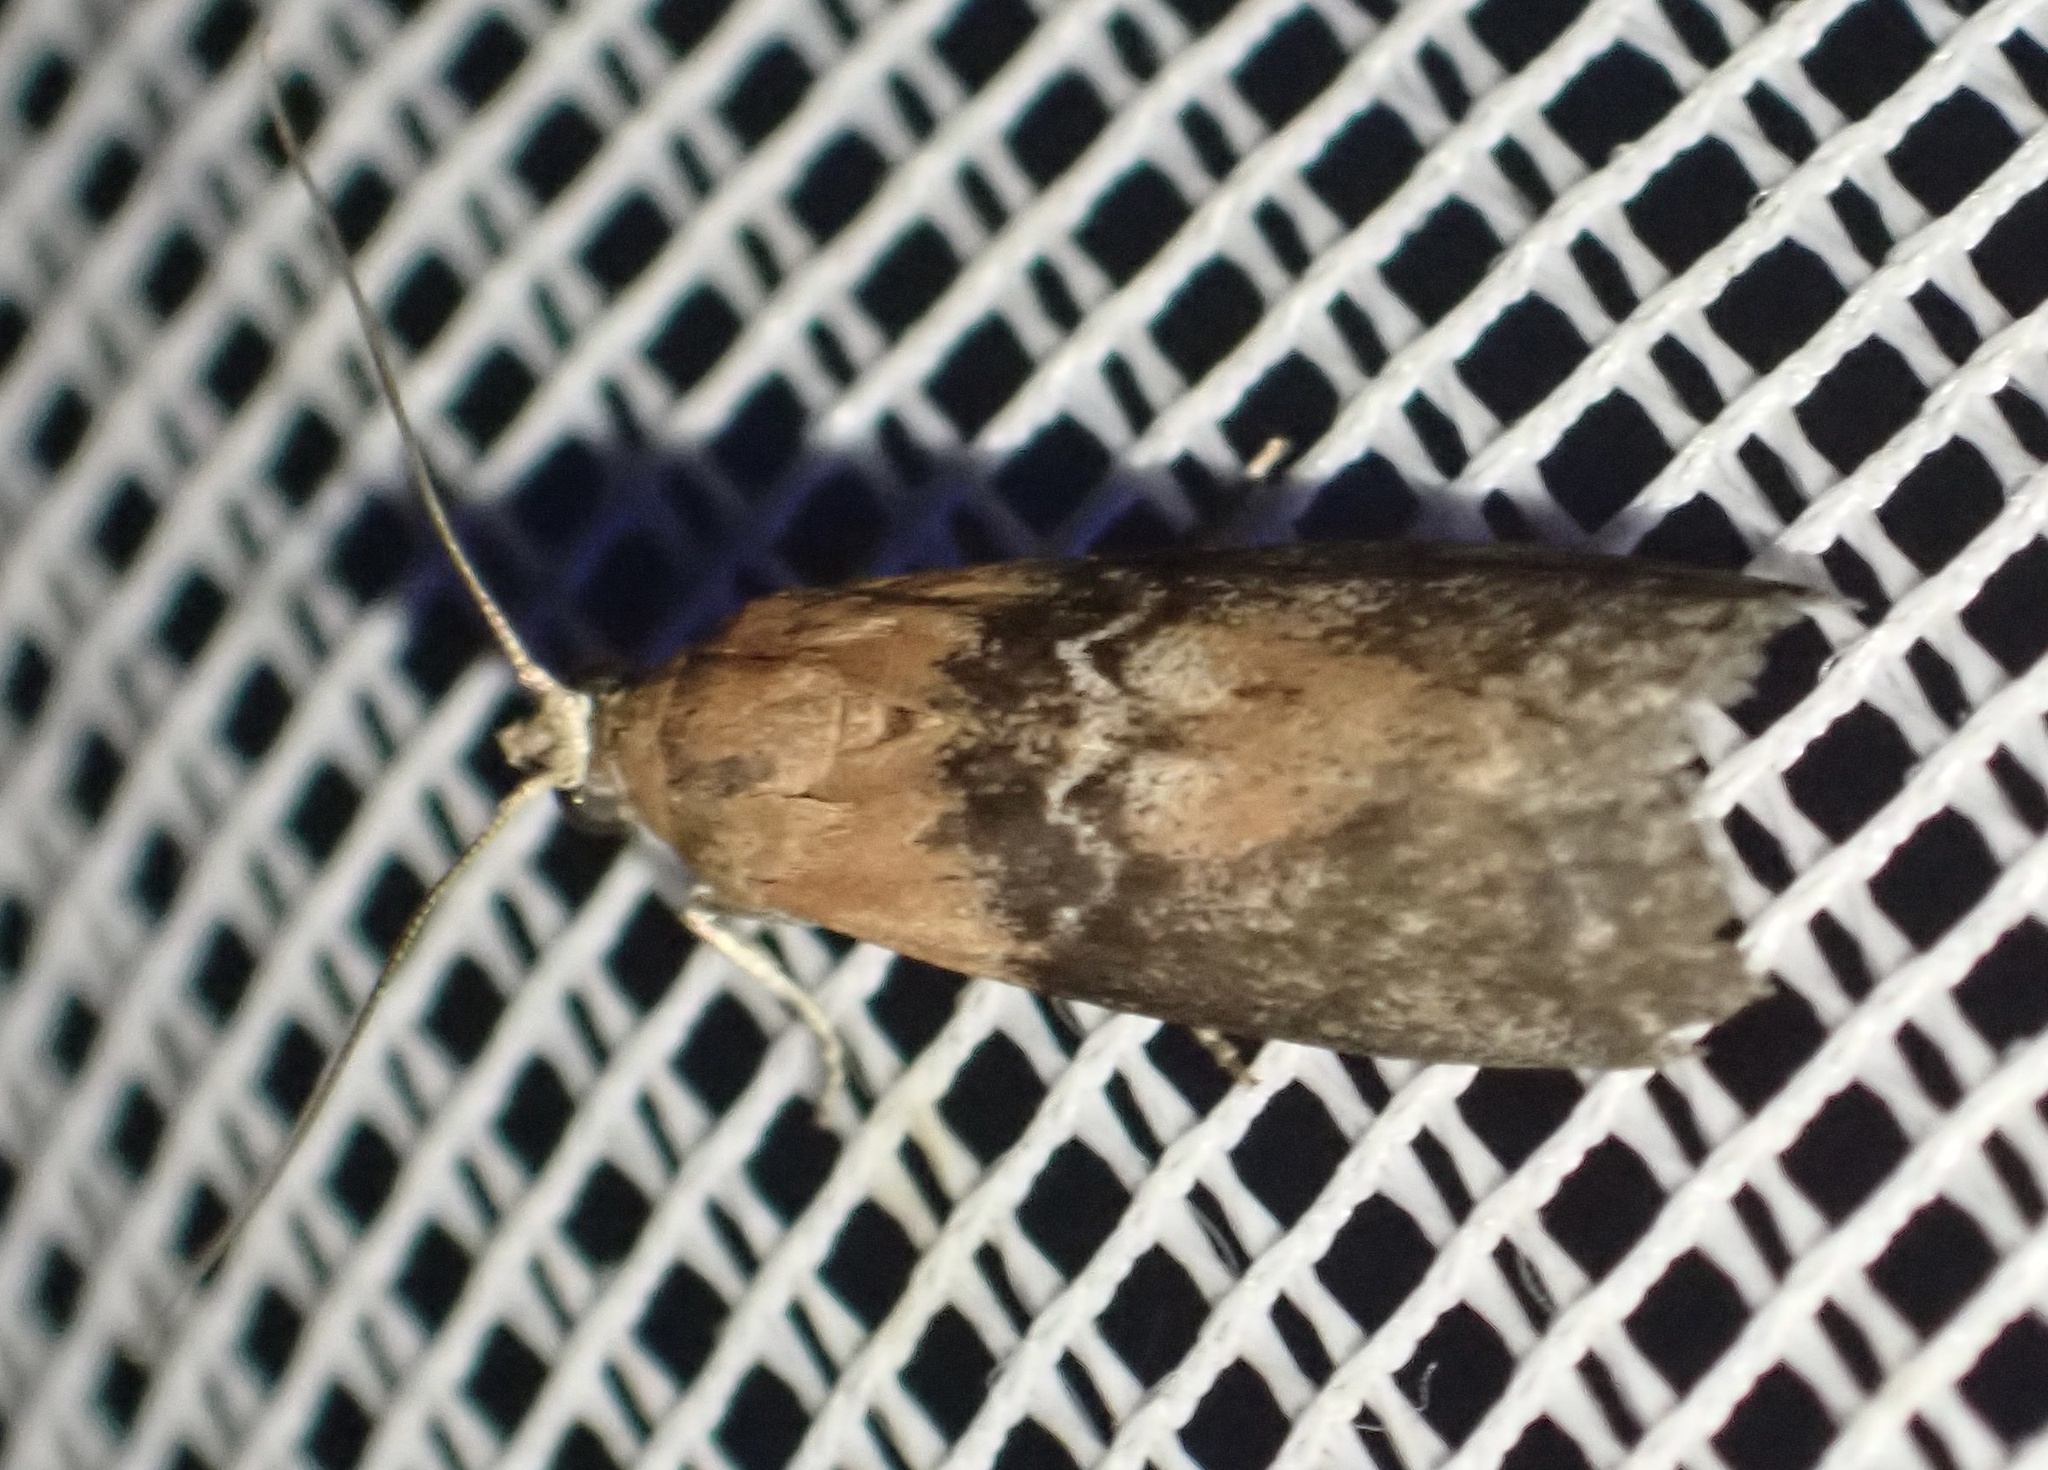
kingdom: Animalia
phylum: Arthropoda
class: Insecta
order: Lepidoptera
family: Pyralidae
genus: Sciota
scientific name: Sciota adelphella
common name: Willow knot-horn
